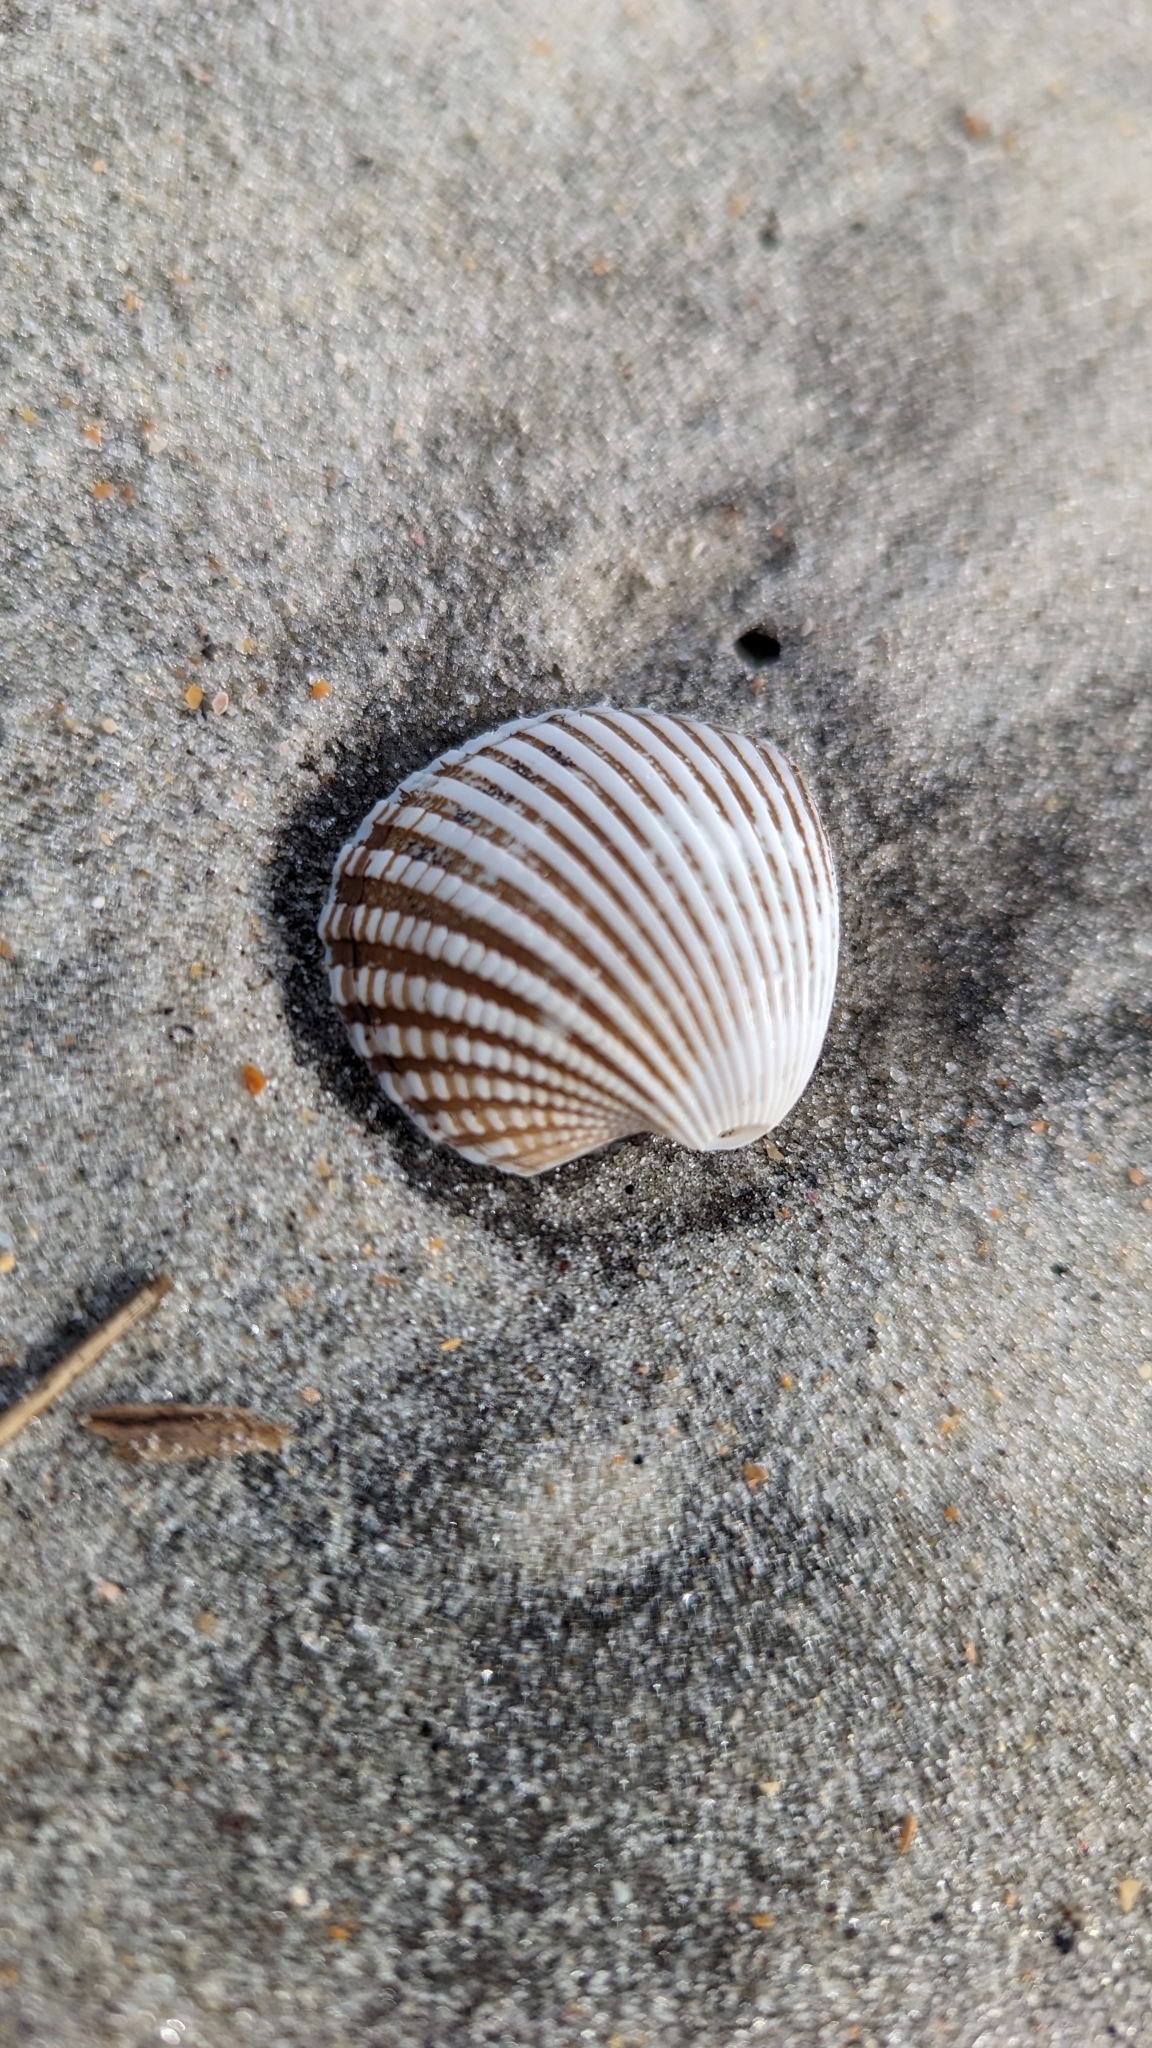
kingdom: Animalia
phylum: Mollusca
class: Bivalvia
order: Arcida
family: Arcidae
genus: Anadara
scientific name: Anadara brasiliana
